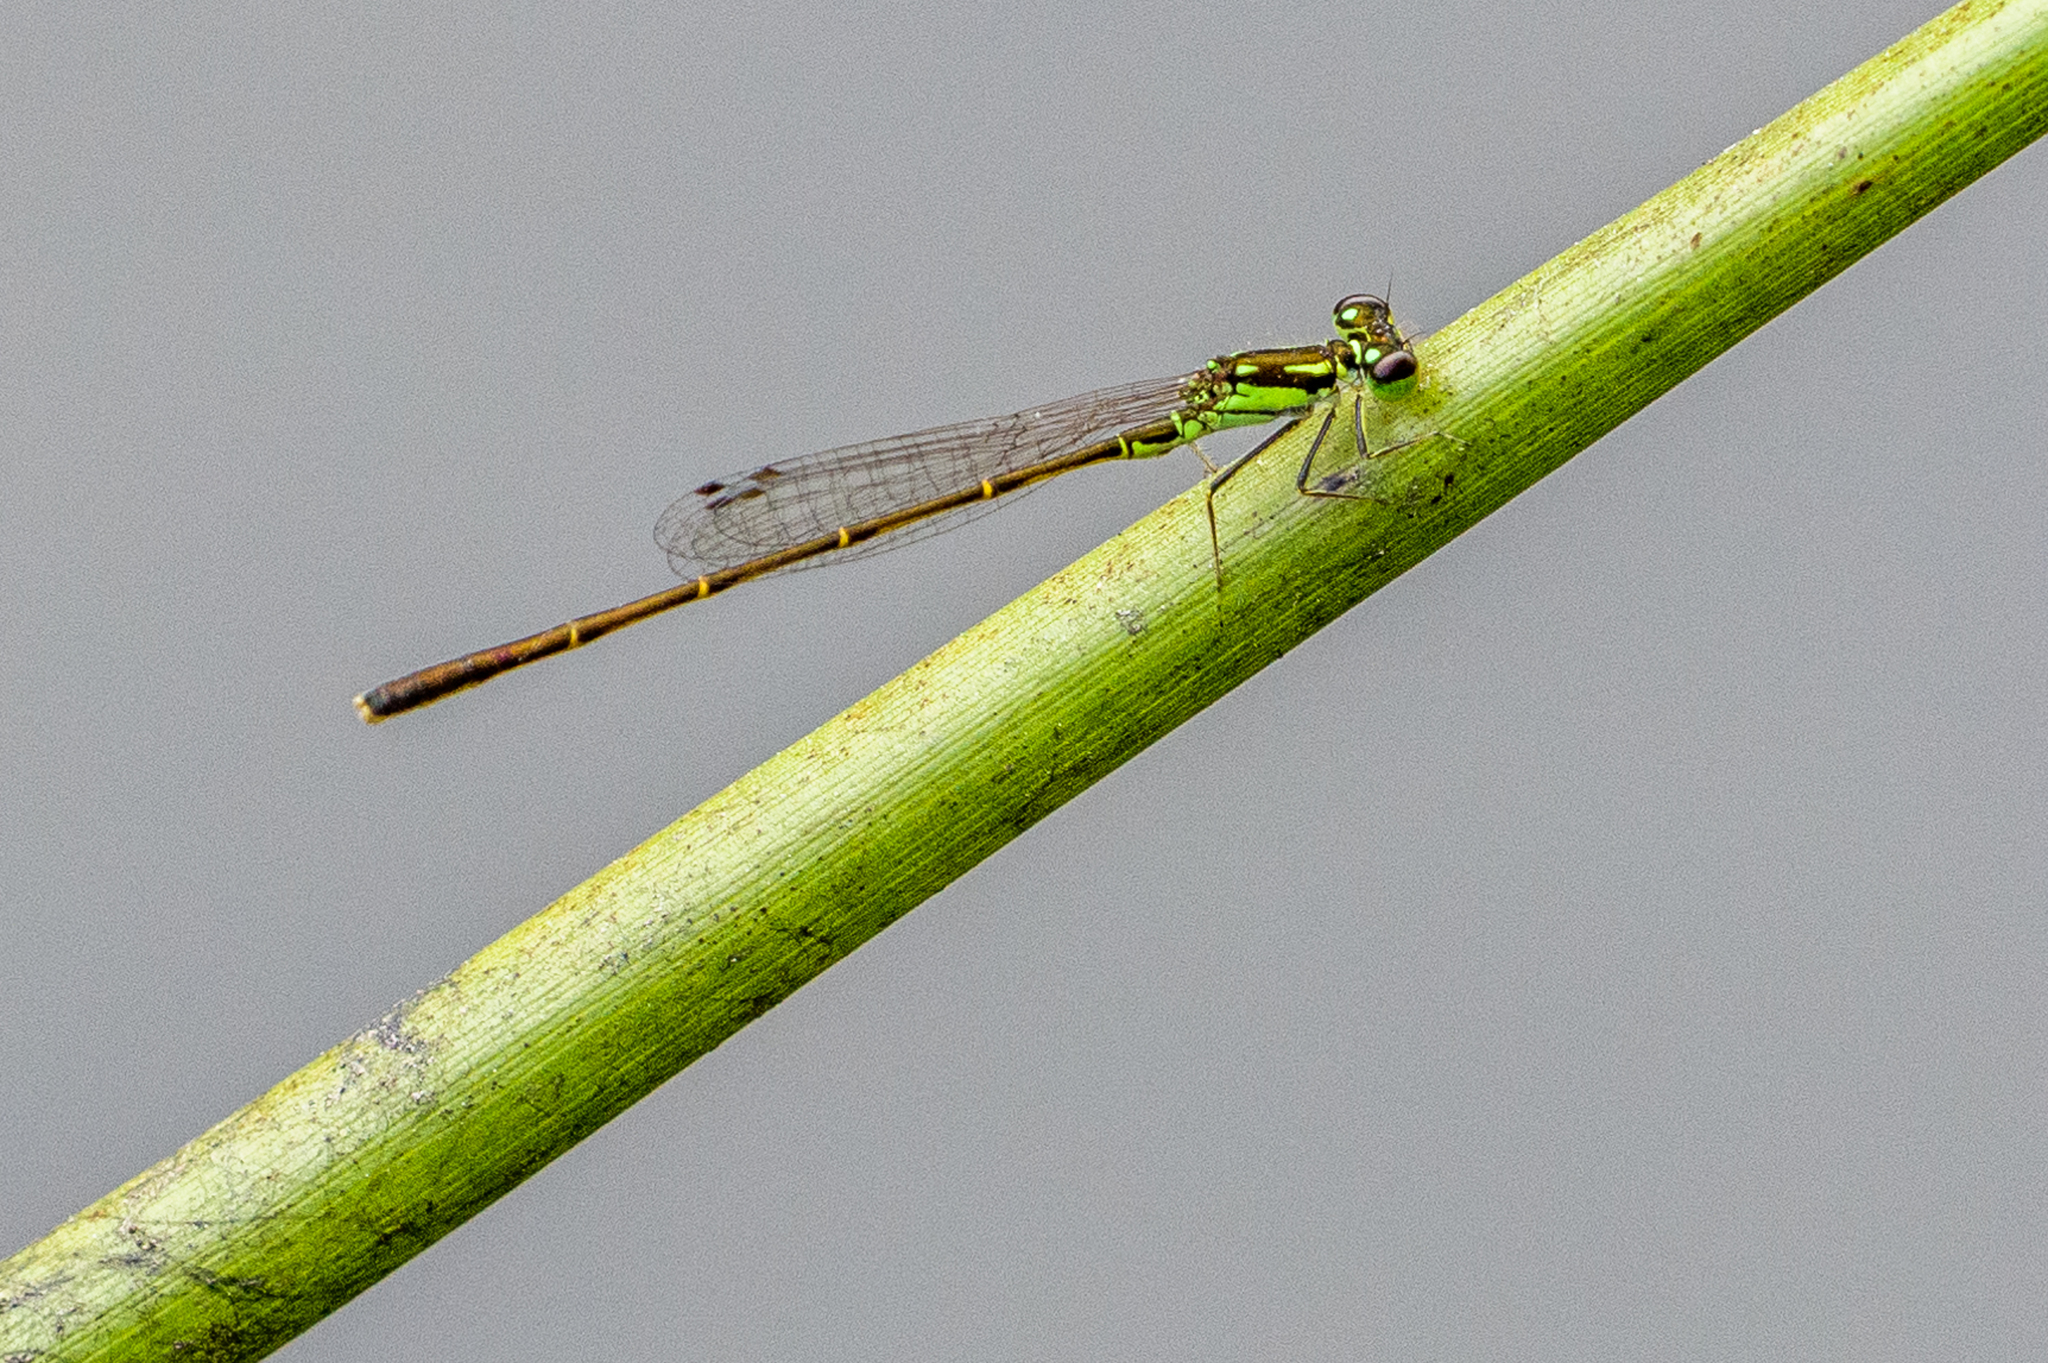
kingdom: Animalia
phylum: Arthropoda
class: Insecta
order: Odonata
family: Coenagrionidae
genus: Ischnura
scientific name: Ischnura posita
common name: Fragile forktail
